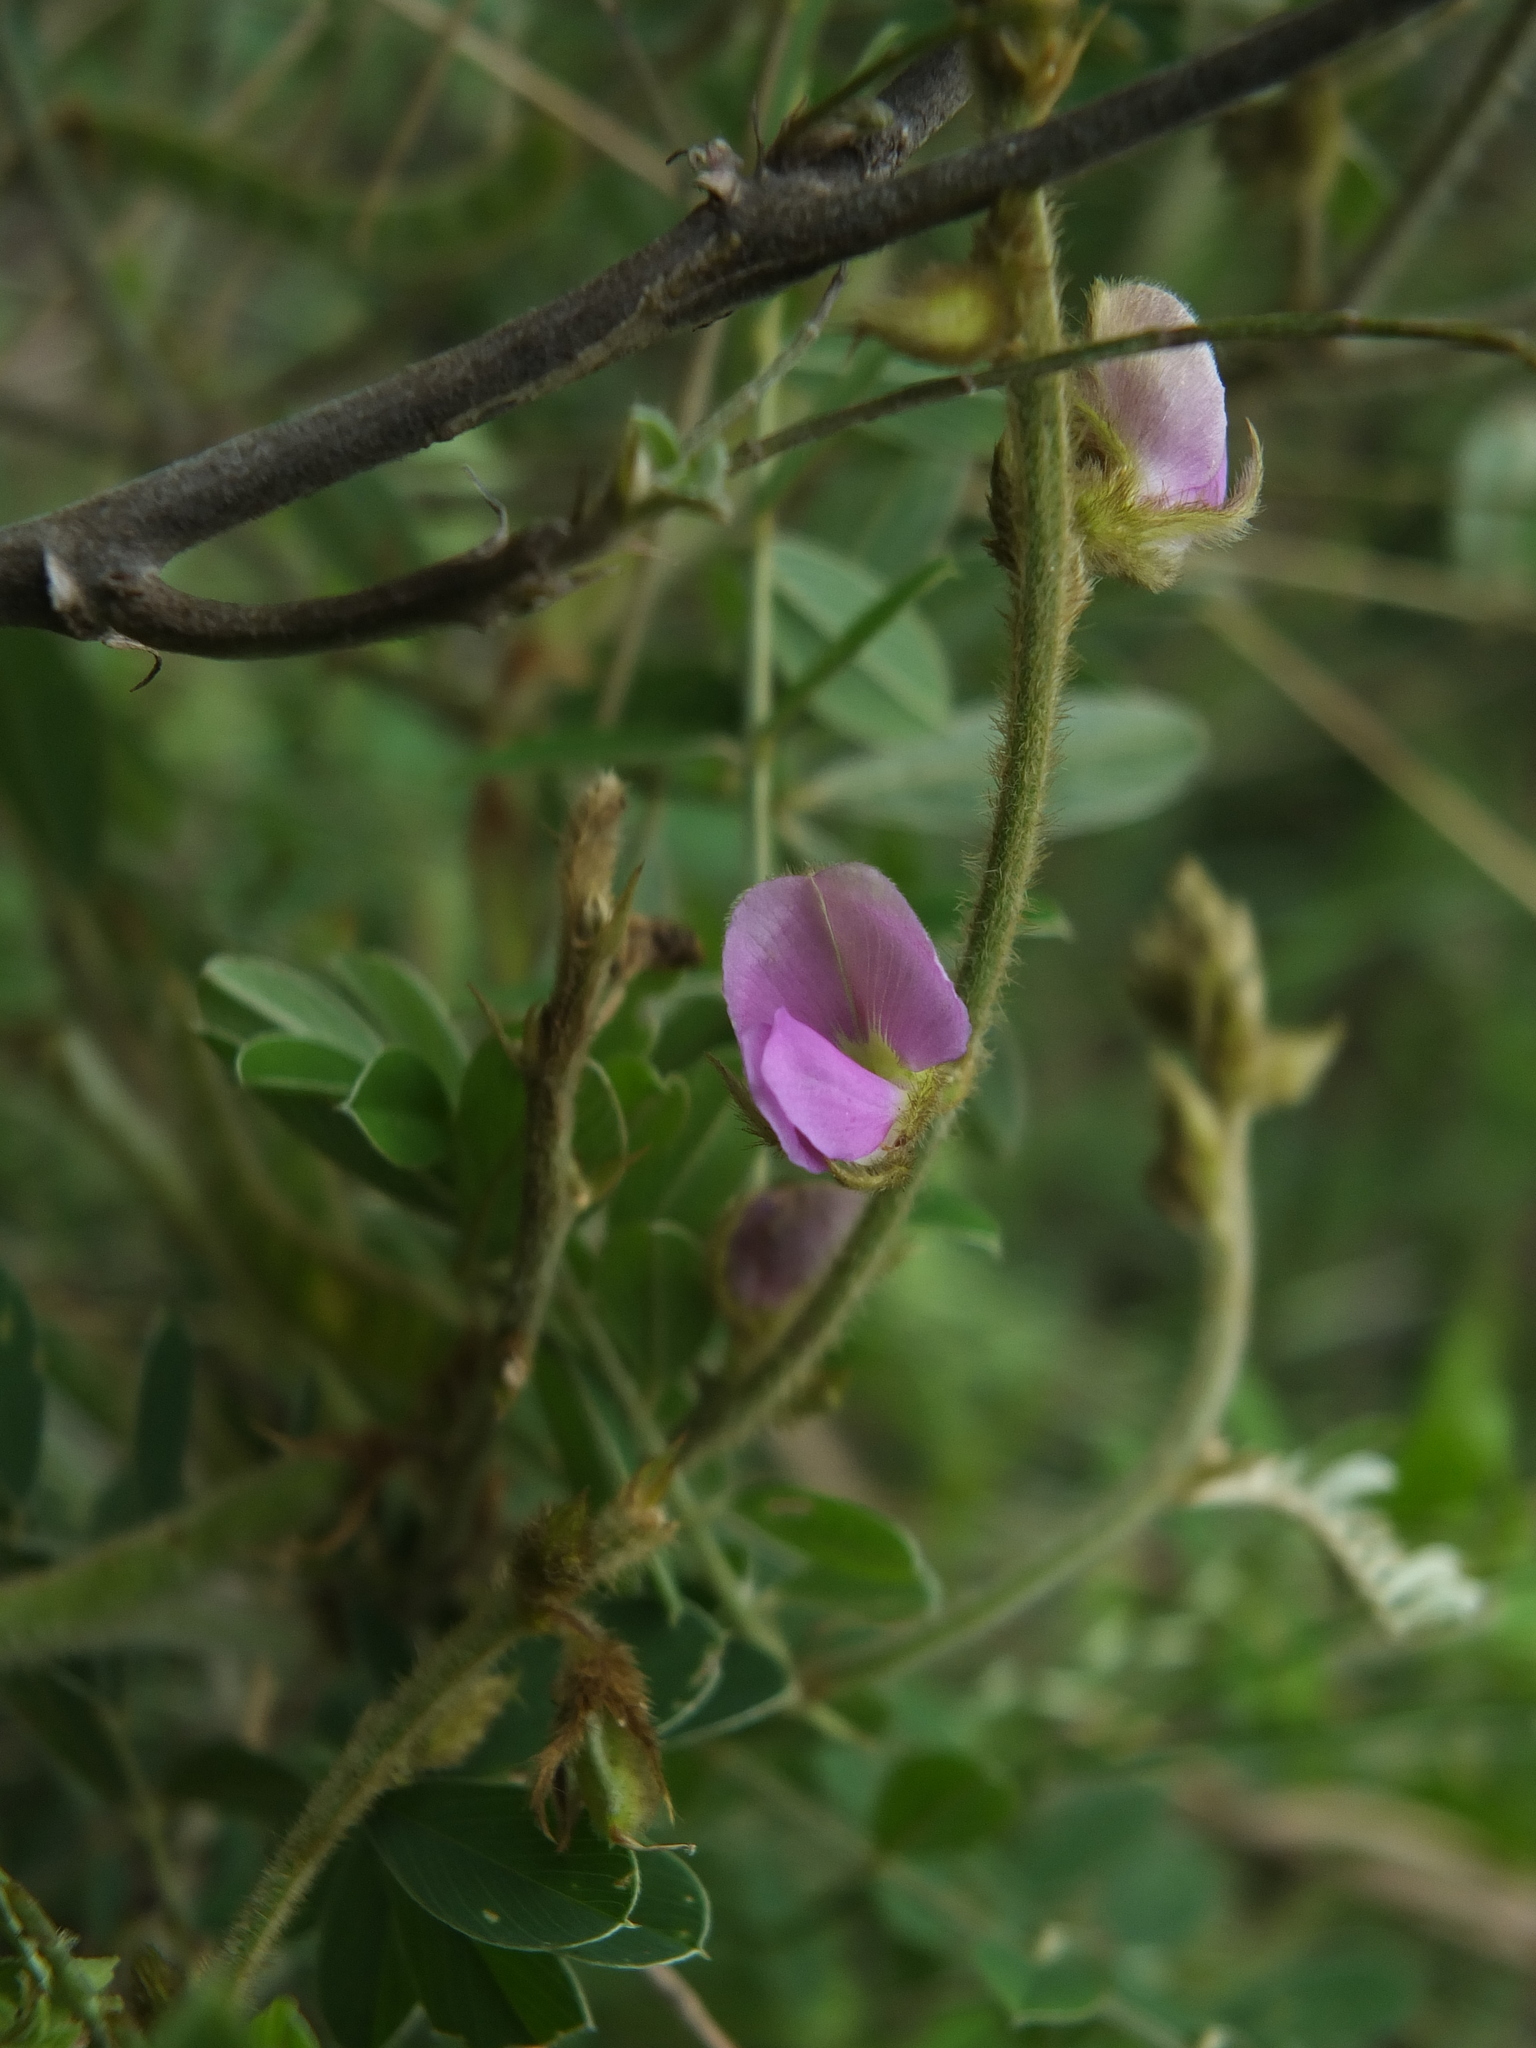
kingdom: Plantae
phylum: Tracheophyta
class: Magnoliopsida
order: Fabales
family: Fabaceae
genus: Tephrosia
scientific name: Tephrosia villosa
